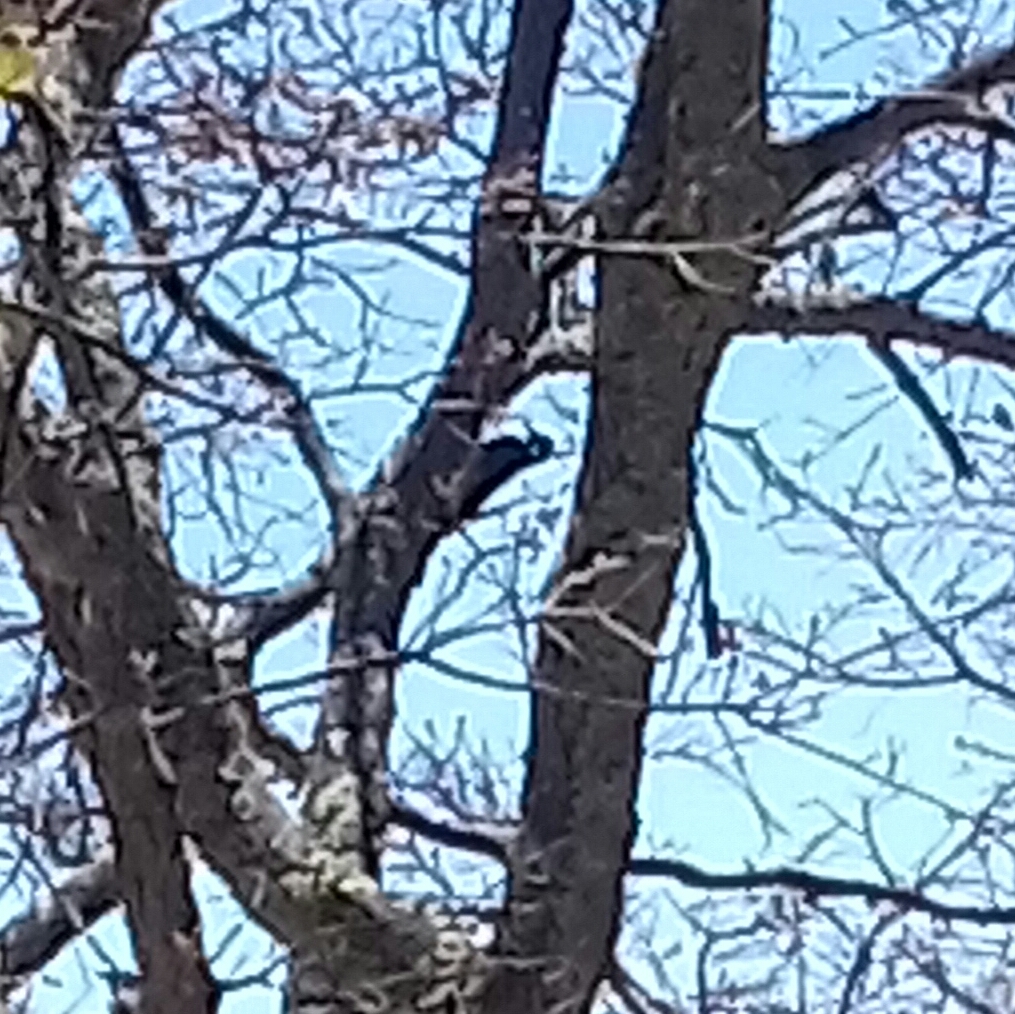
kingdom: Animalia
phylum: Chordata
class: Aves
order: Piciformes
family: Picidae
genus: Melanerpes
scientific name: Melanerpes formicivorus
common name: Acorn woodpecker
